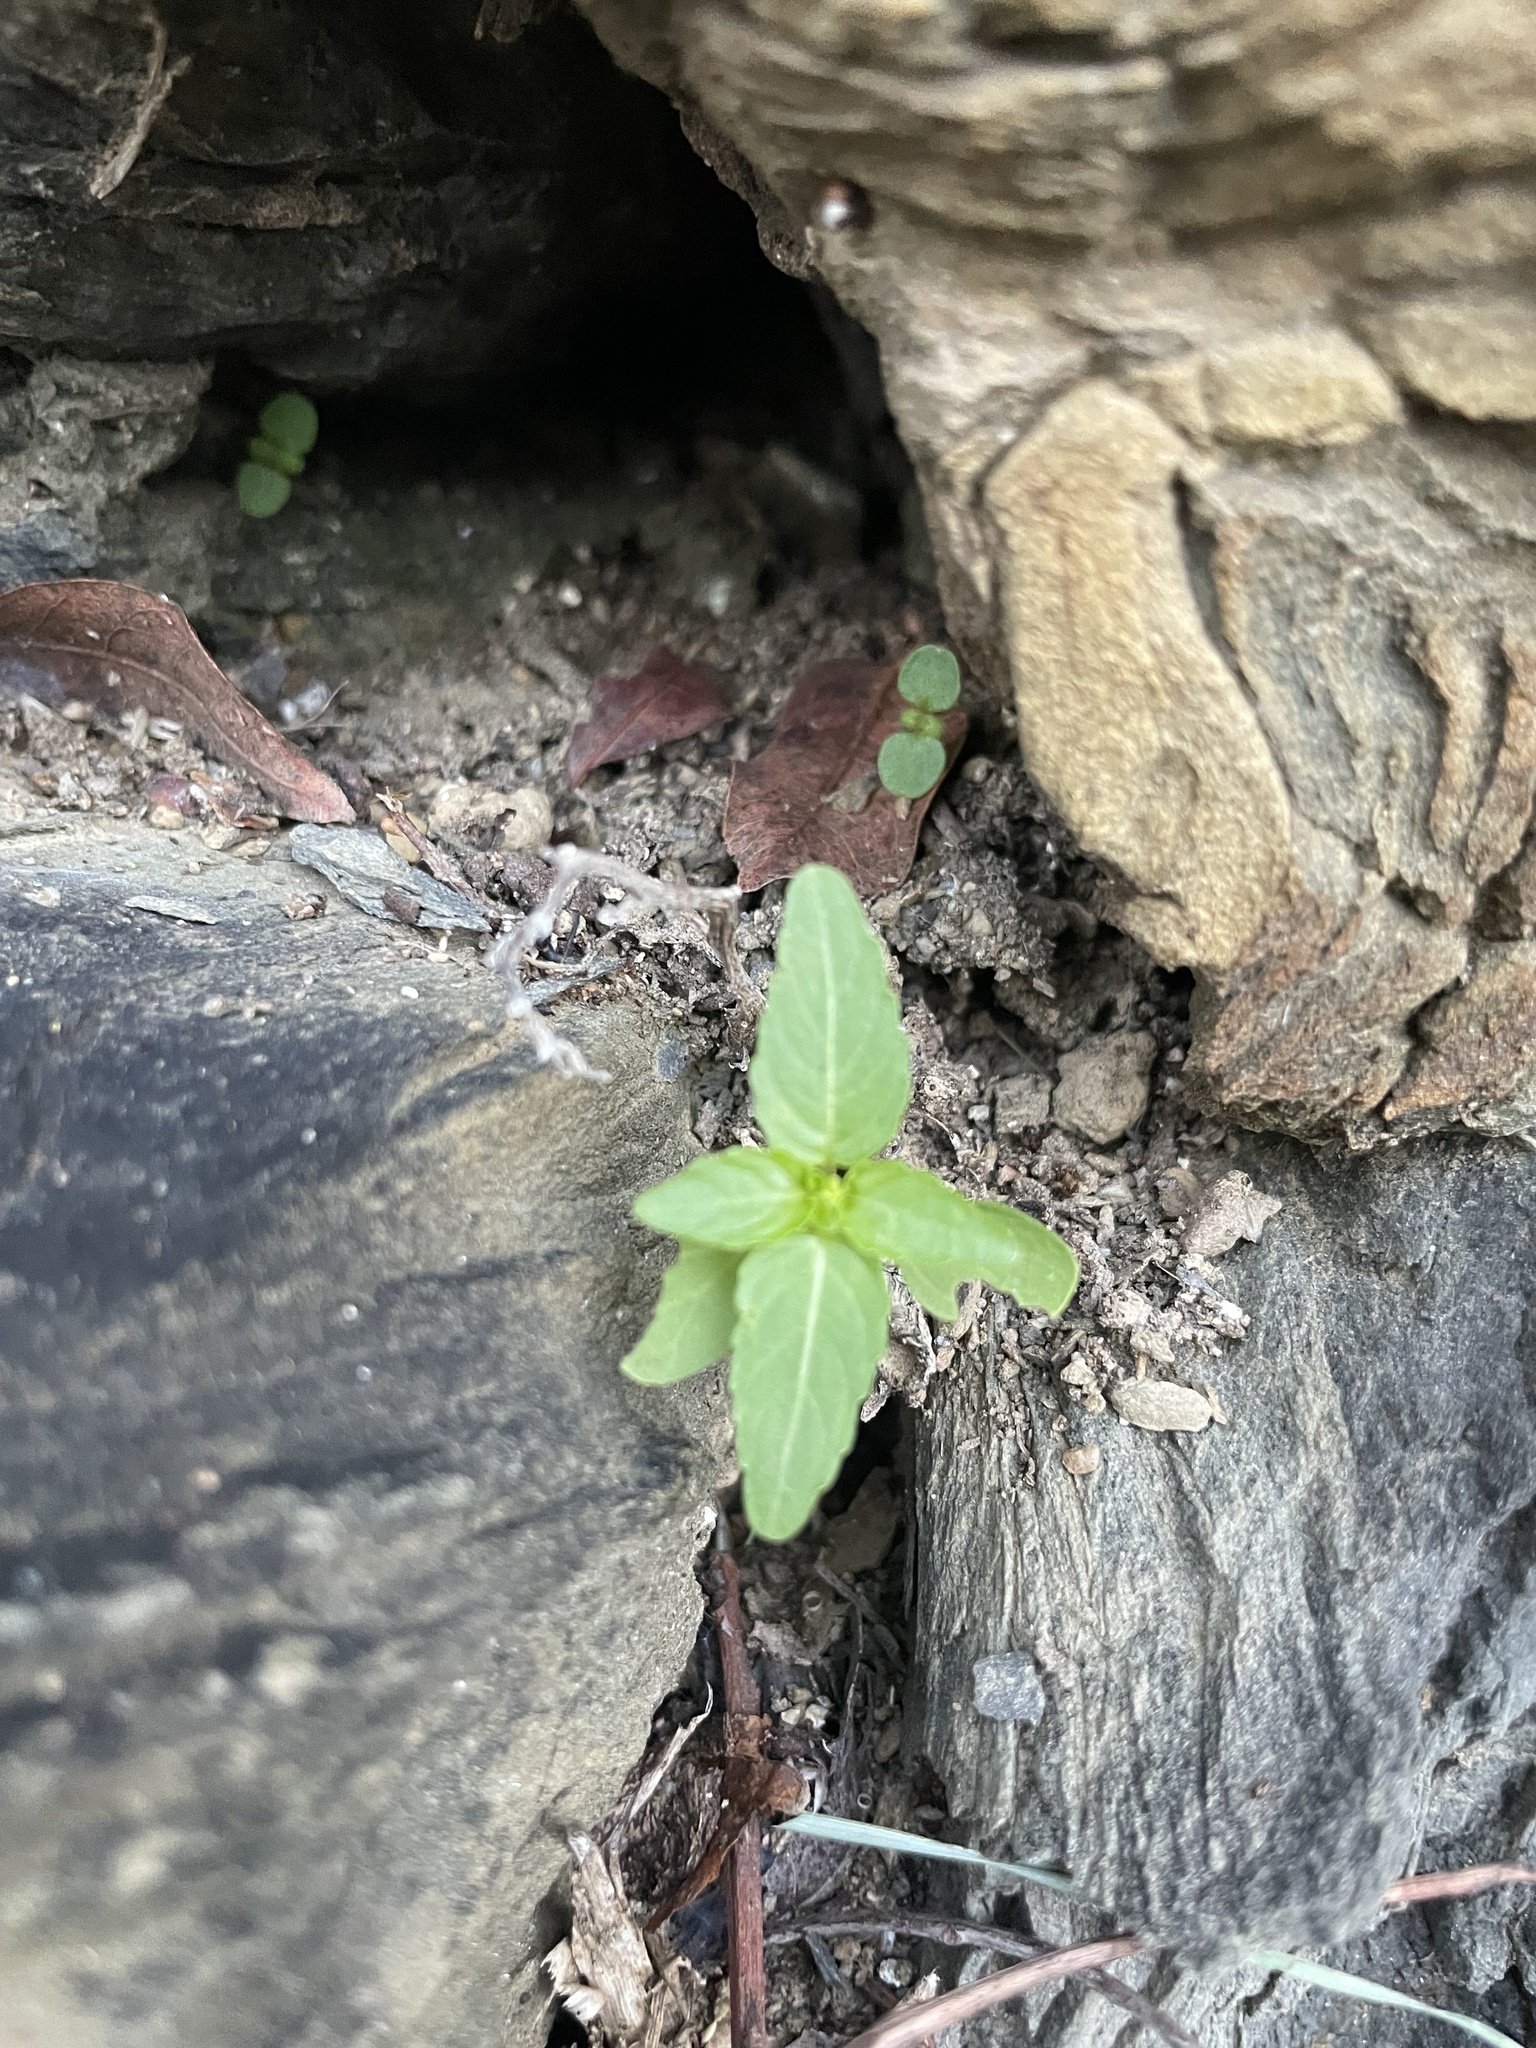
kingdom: Plantae
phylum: Tracheophyta
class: Magnoliopsida
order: Malpighiales
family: Euphorbiaceae
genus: Mercurialis
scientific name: Mercurialis annua
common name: Annual mercury
